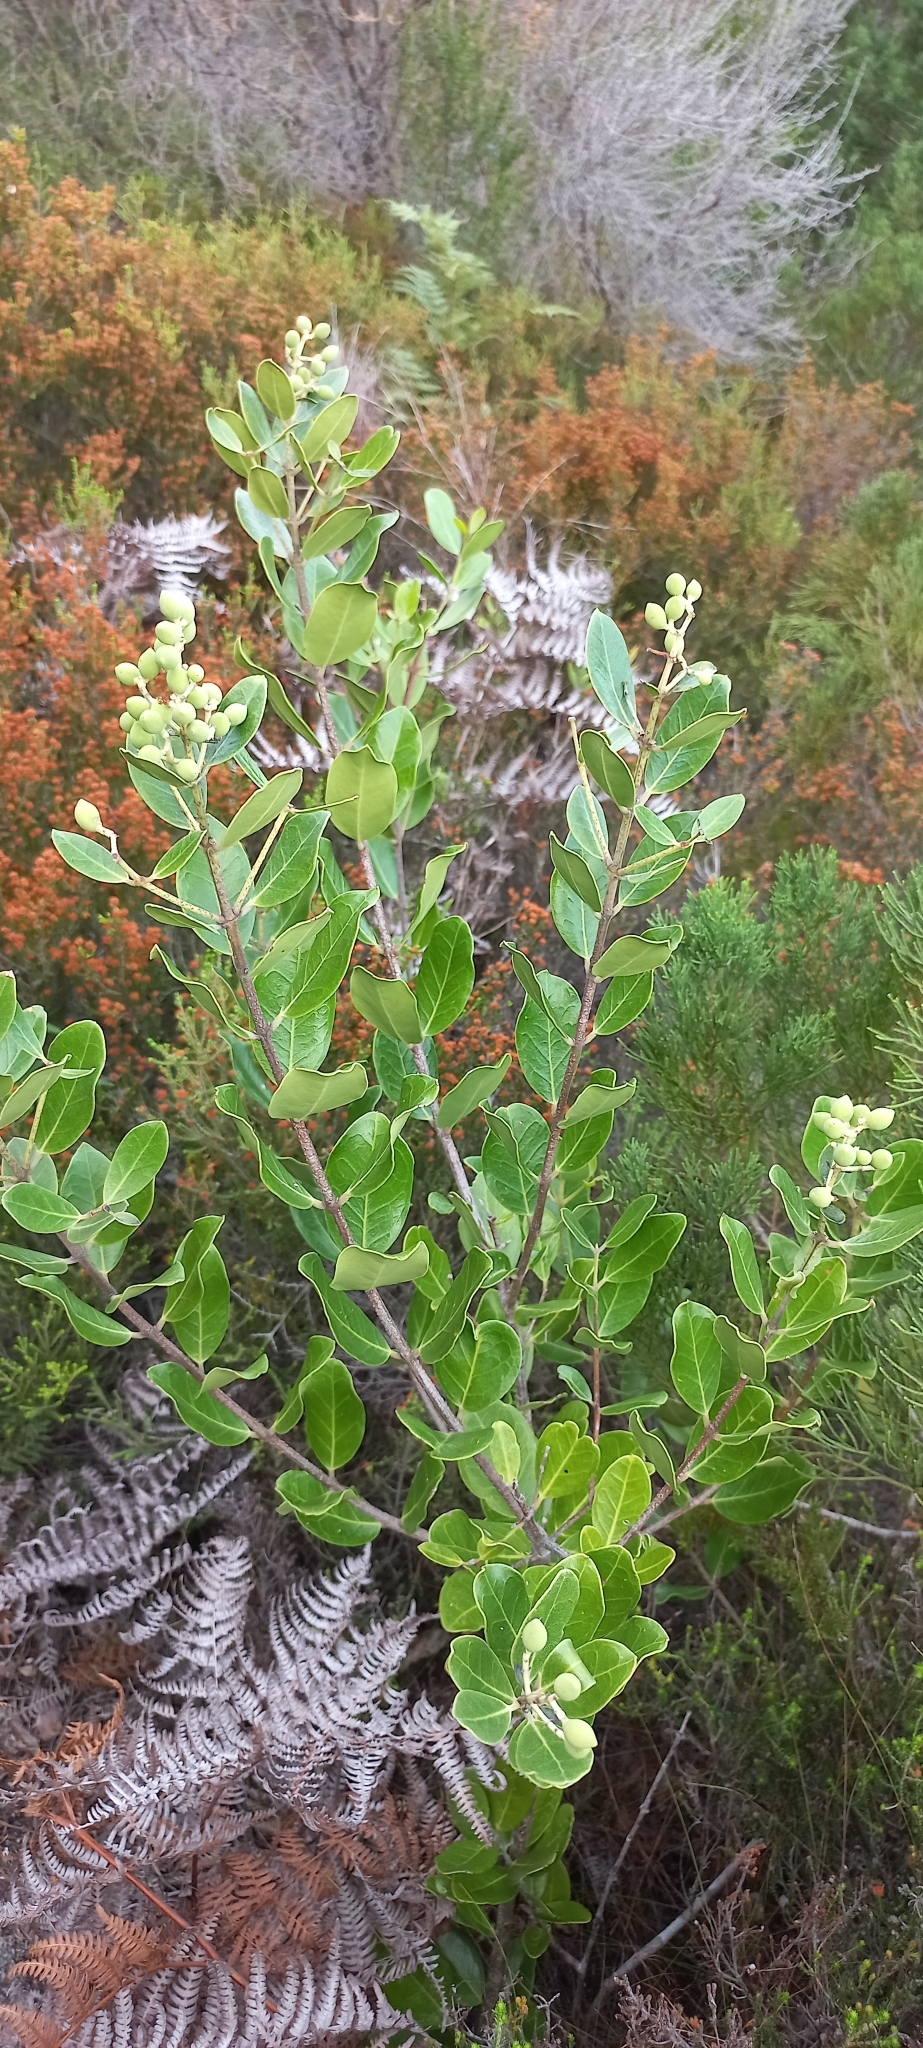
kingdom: Plantae
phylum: Tracheophyta
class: Magnoliopsida
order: Lamiales
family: Oleaceae
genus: Olea
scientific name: Olea capensis
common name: Black ironwood
